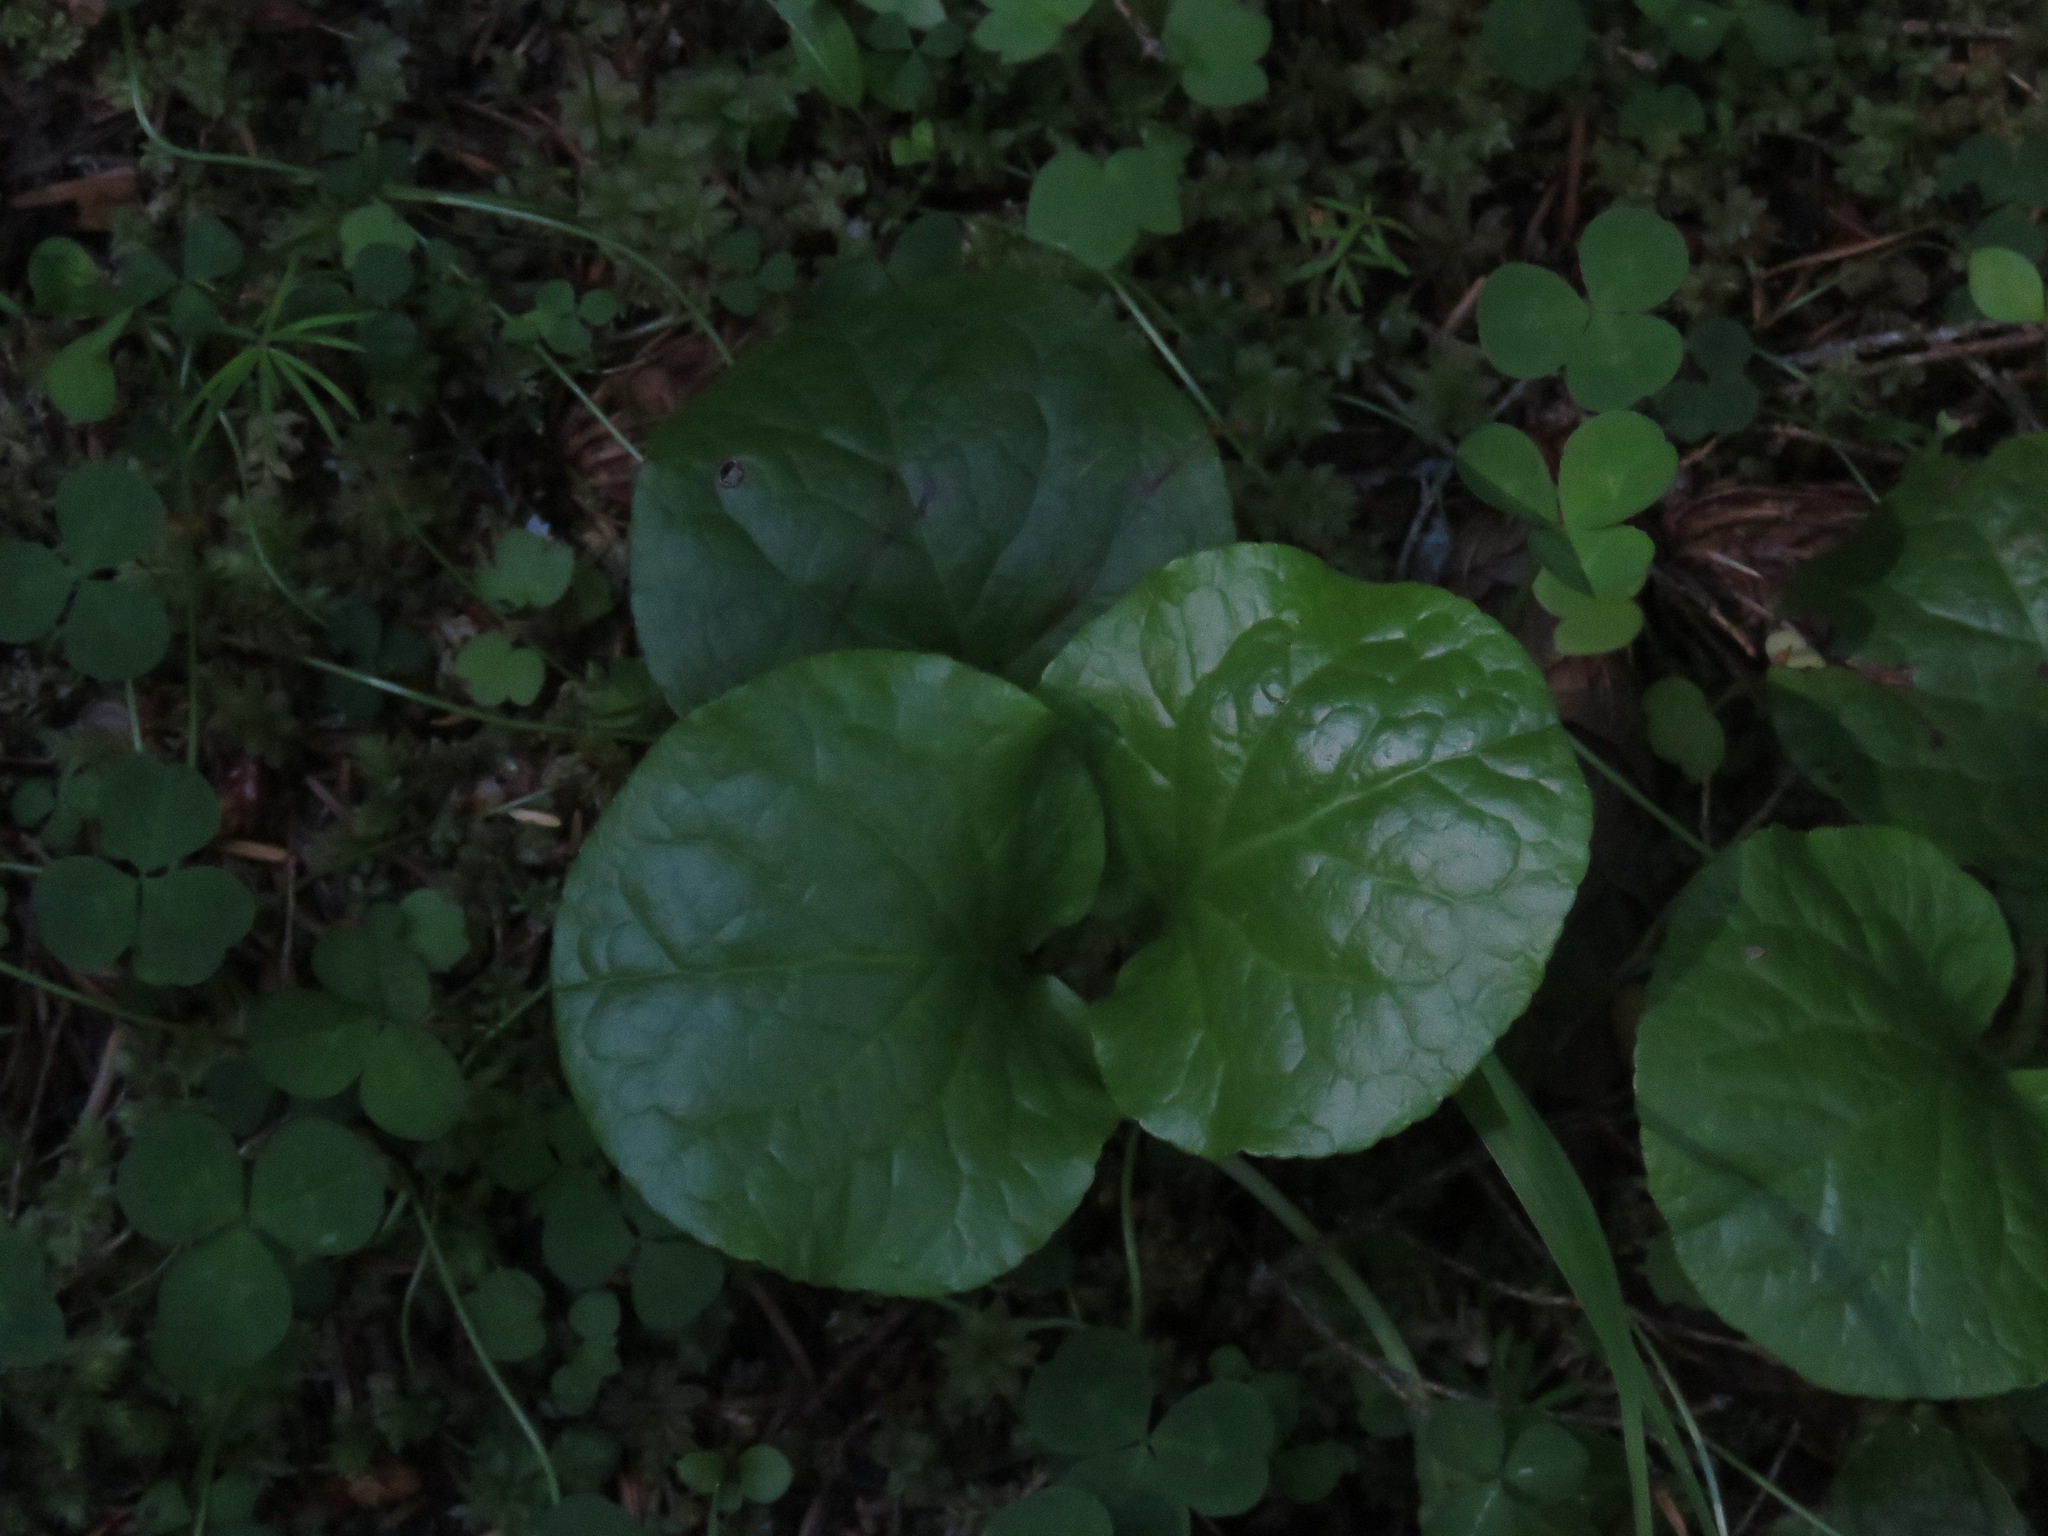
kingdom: Plantae
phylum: Tracheophyta
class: Magnoliopsida
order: Ericales
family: Ericaceae
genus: Pyrola
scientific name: Pyrola asarifolia
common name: Bog wintergreen
